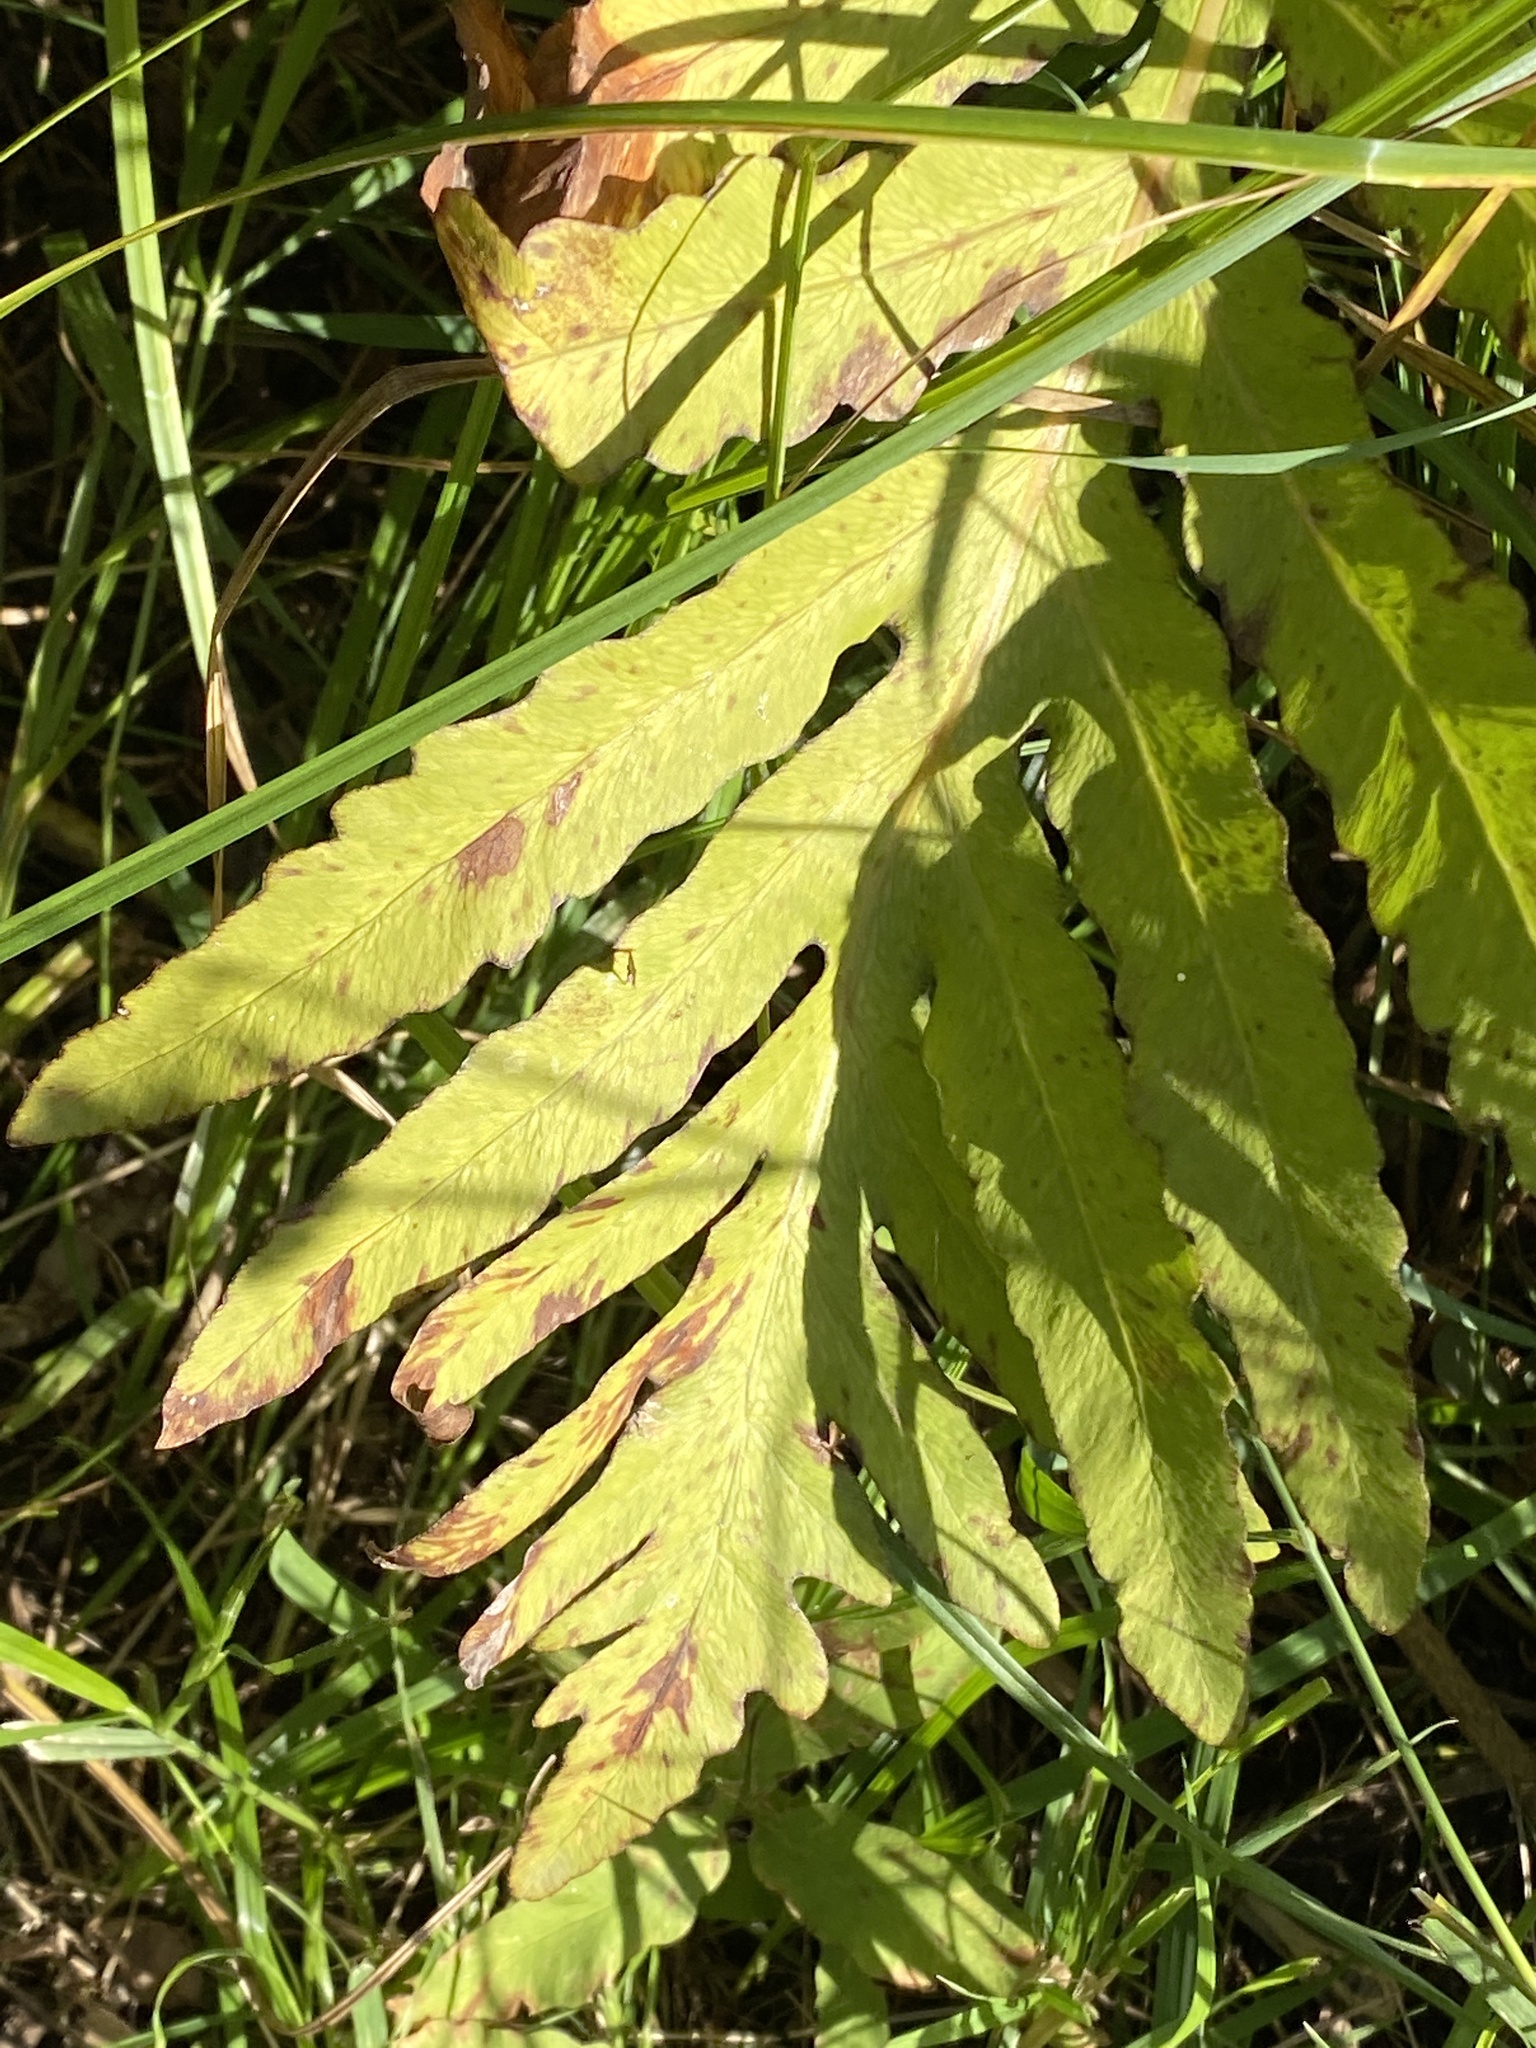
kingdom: Plantae
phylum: Tracheophyta
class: Polypodiopsida
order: Polypodiales
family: Onocleaceae
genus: Onoclea
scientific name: Onoclea sensibilis
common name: Sensitive fern
